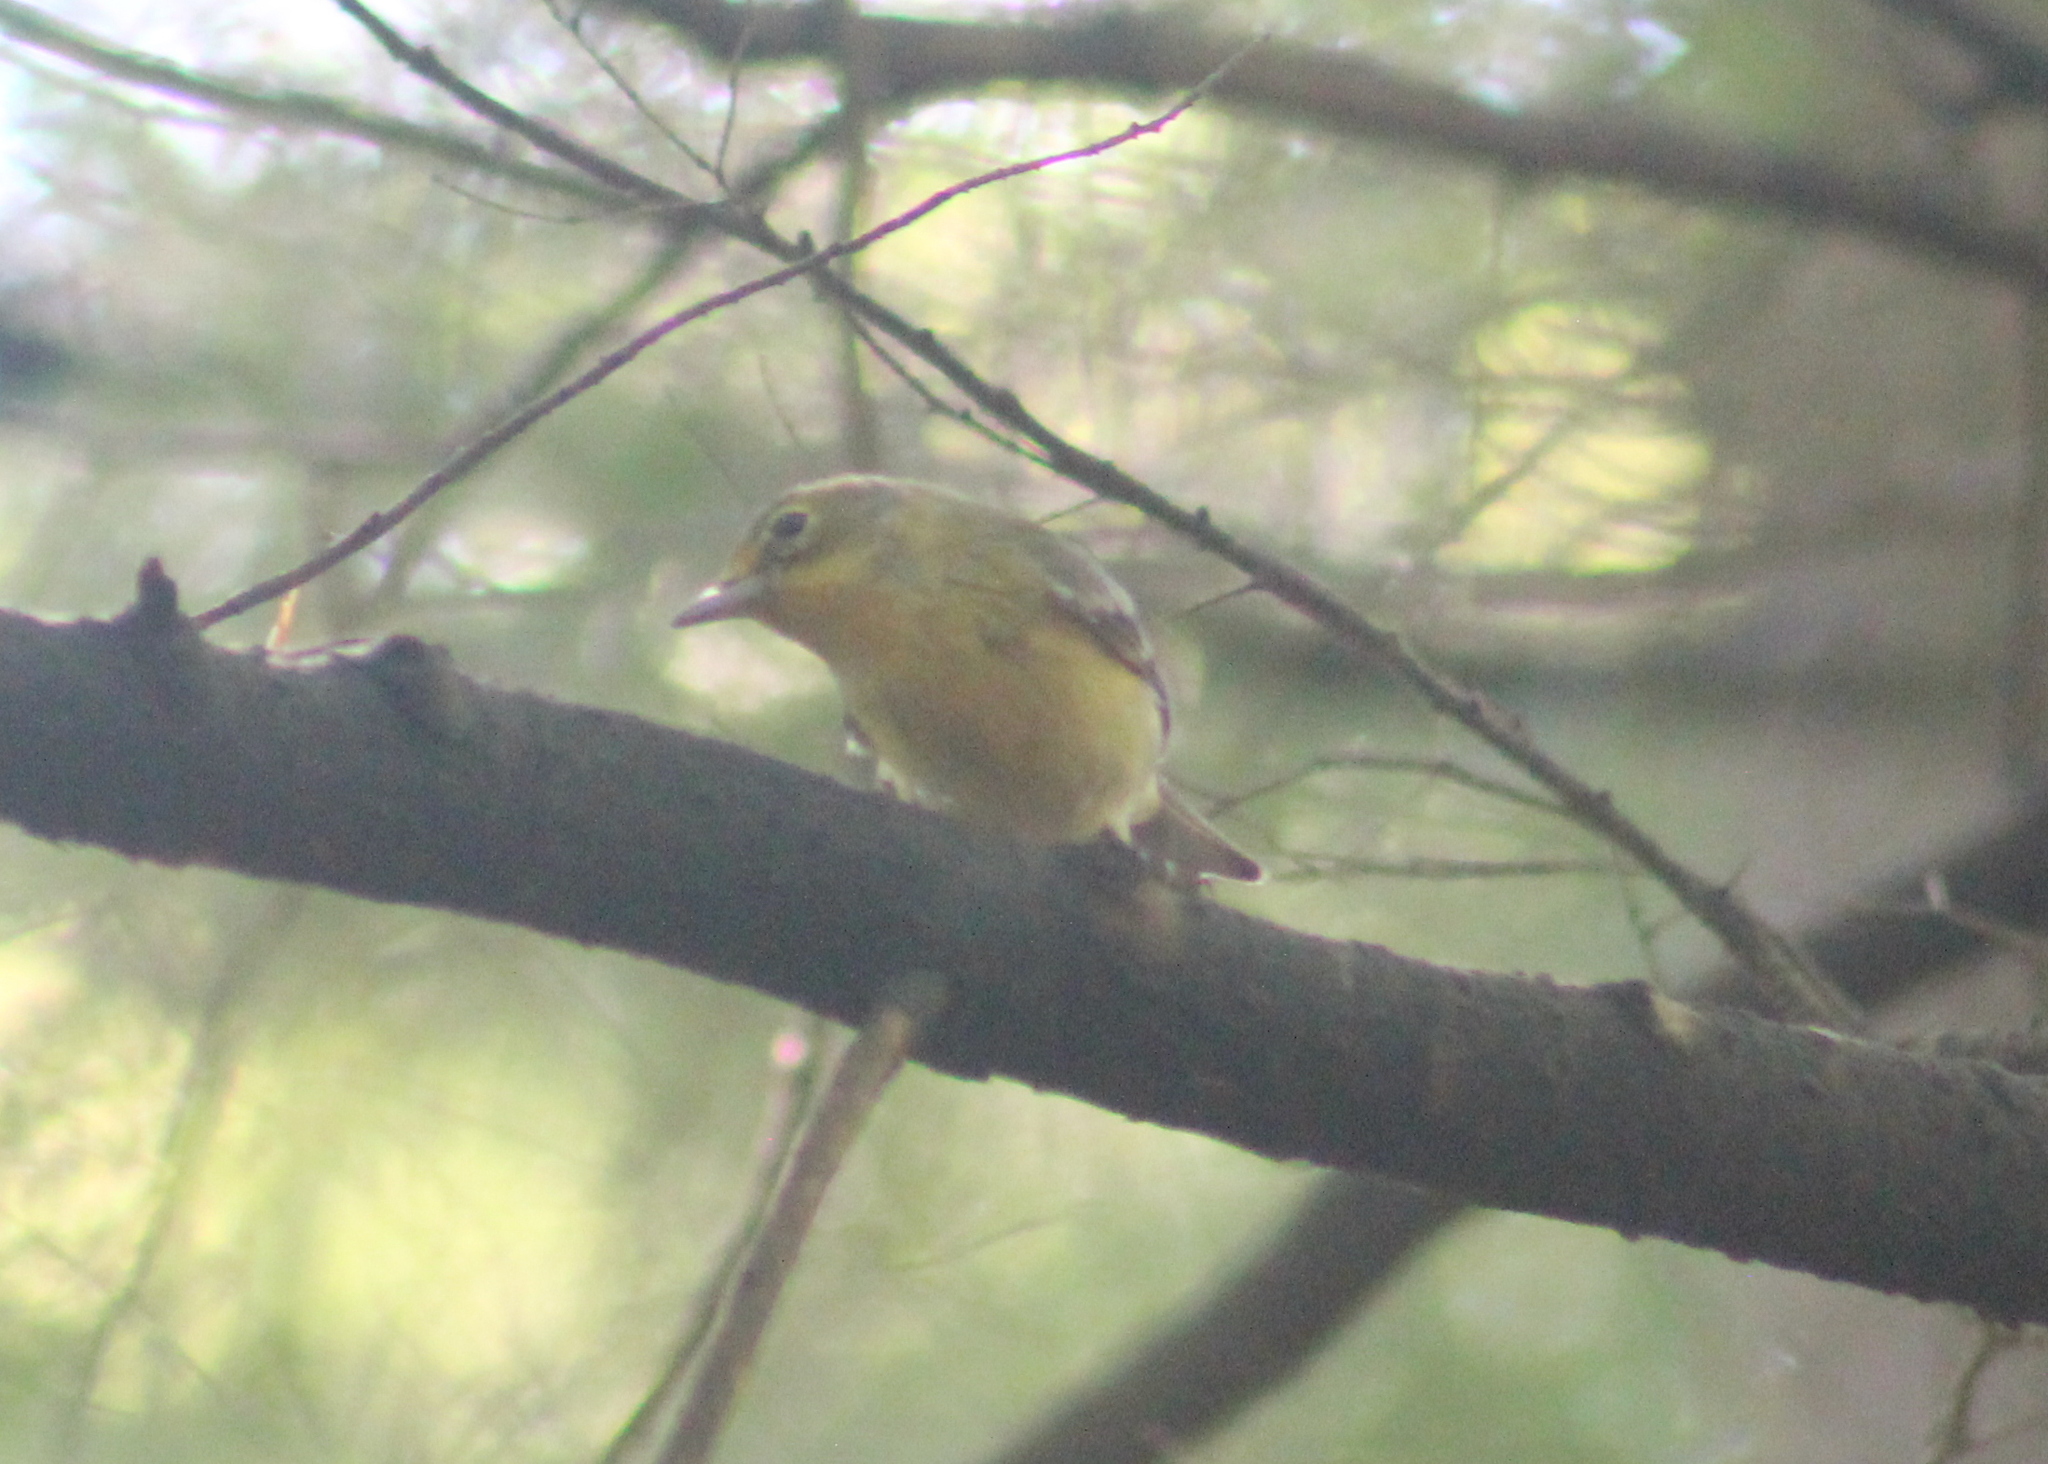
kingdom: Animalia
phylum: Chordata
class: Aves
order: Passeriformes
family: Parulidae
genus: Setophaga
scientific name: Setophaga pinus
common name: Pine warbler
